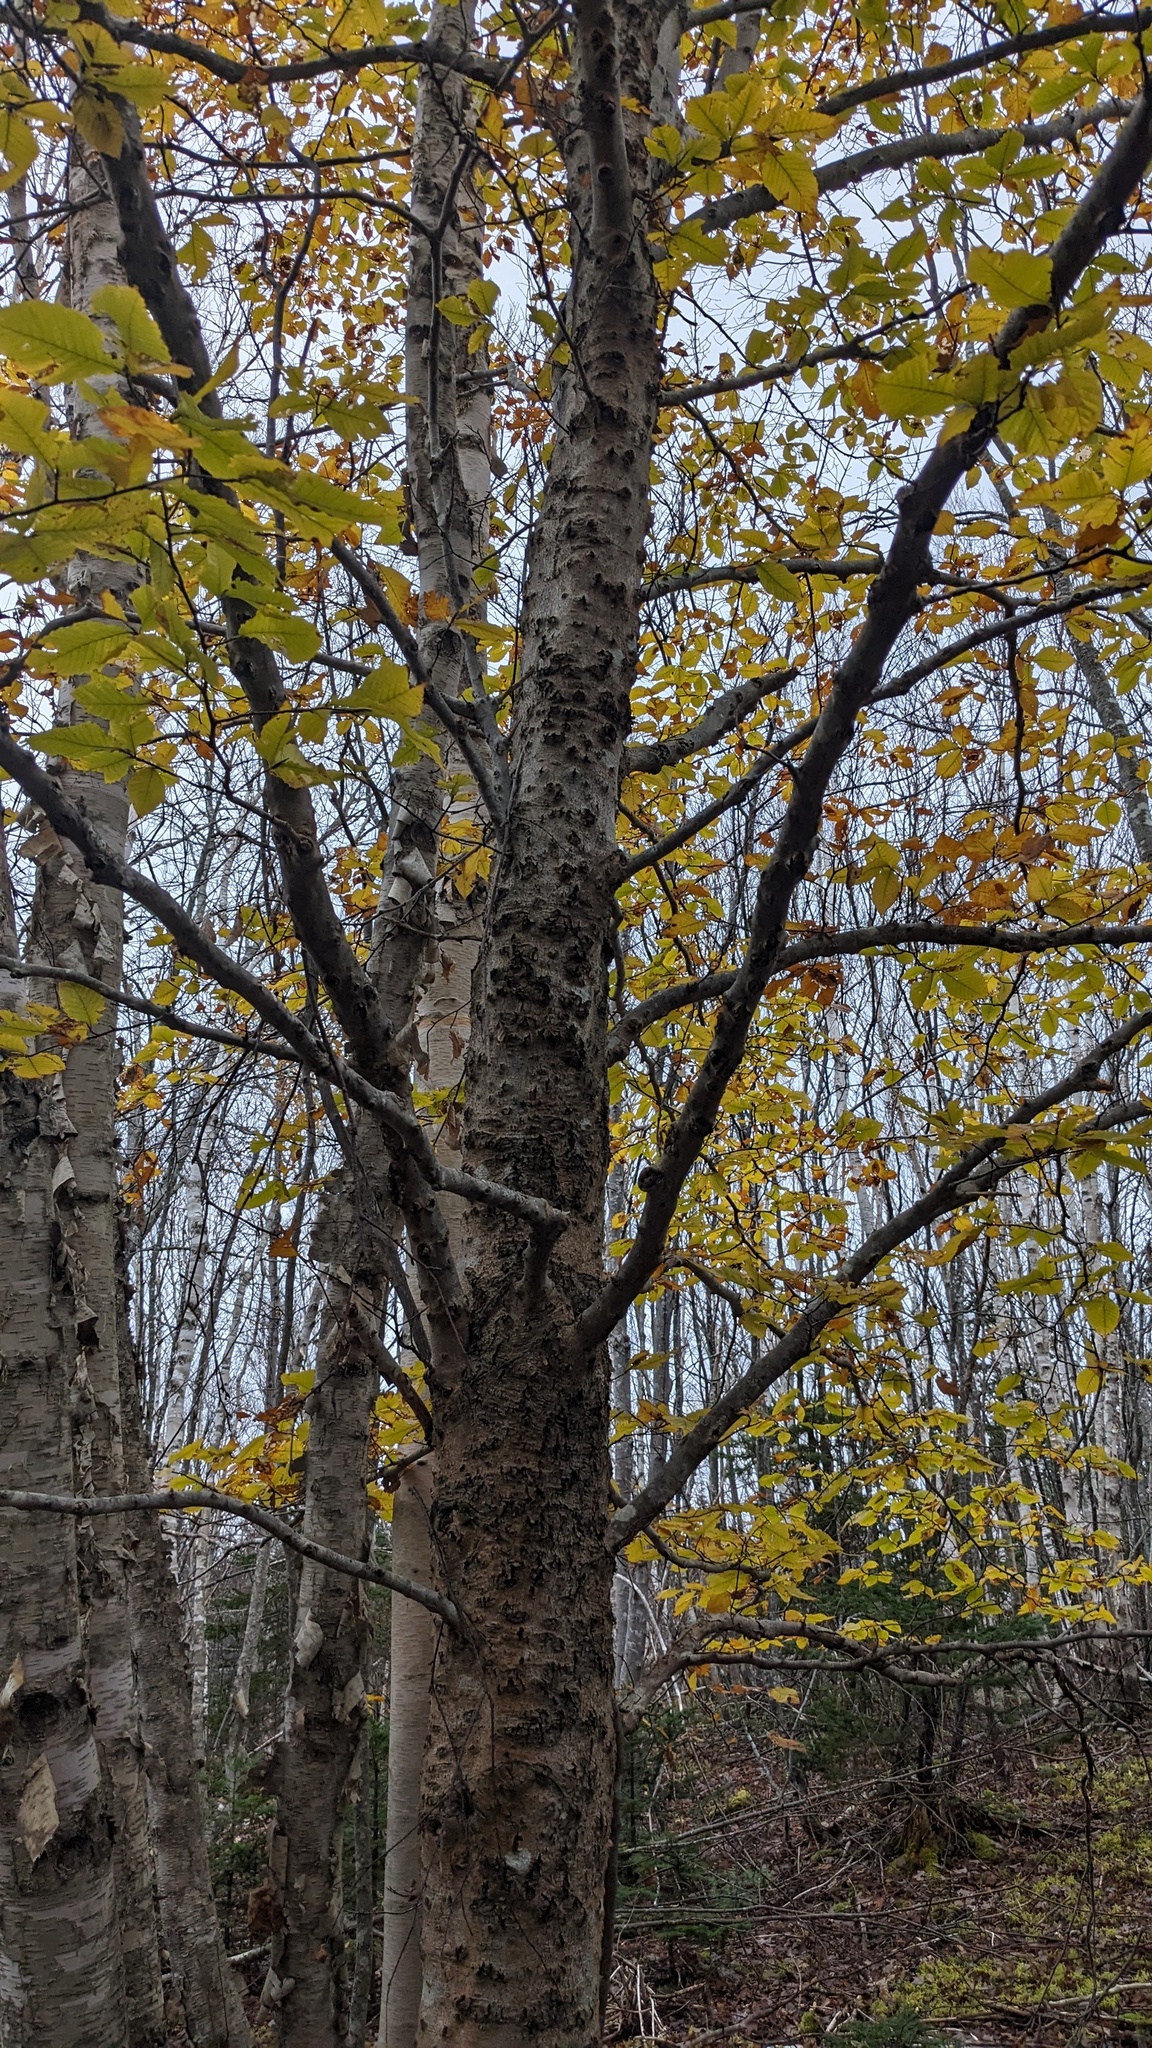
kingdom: Plantae
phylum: Tracheophyta
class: Magnoliopsida
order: Fagales
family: Fagaceae
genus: Fagus
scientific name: Fagus grandifolia
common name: American beech
